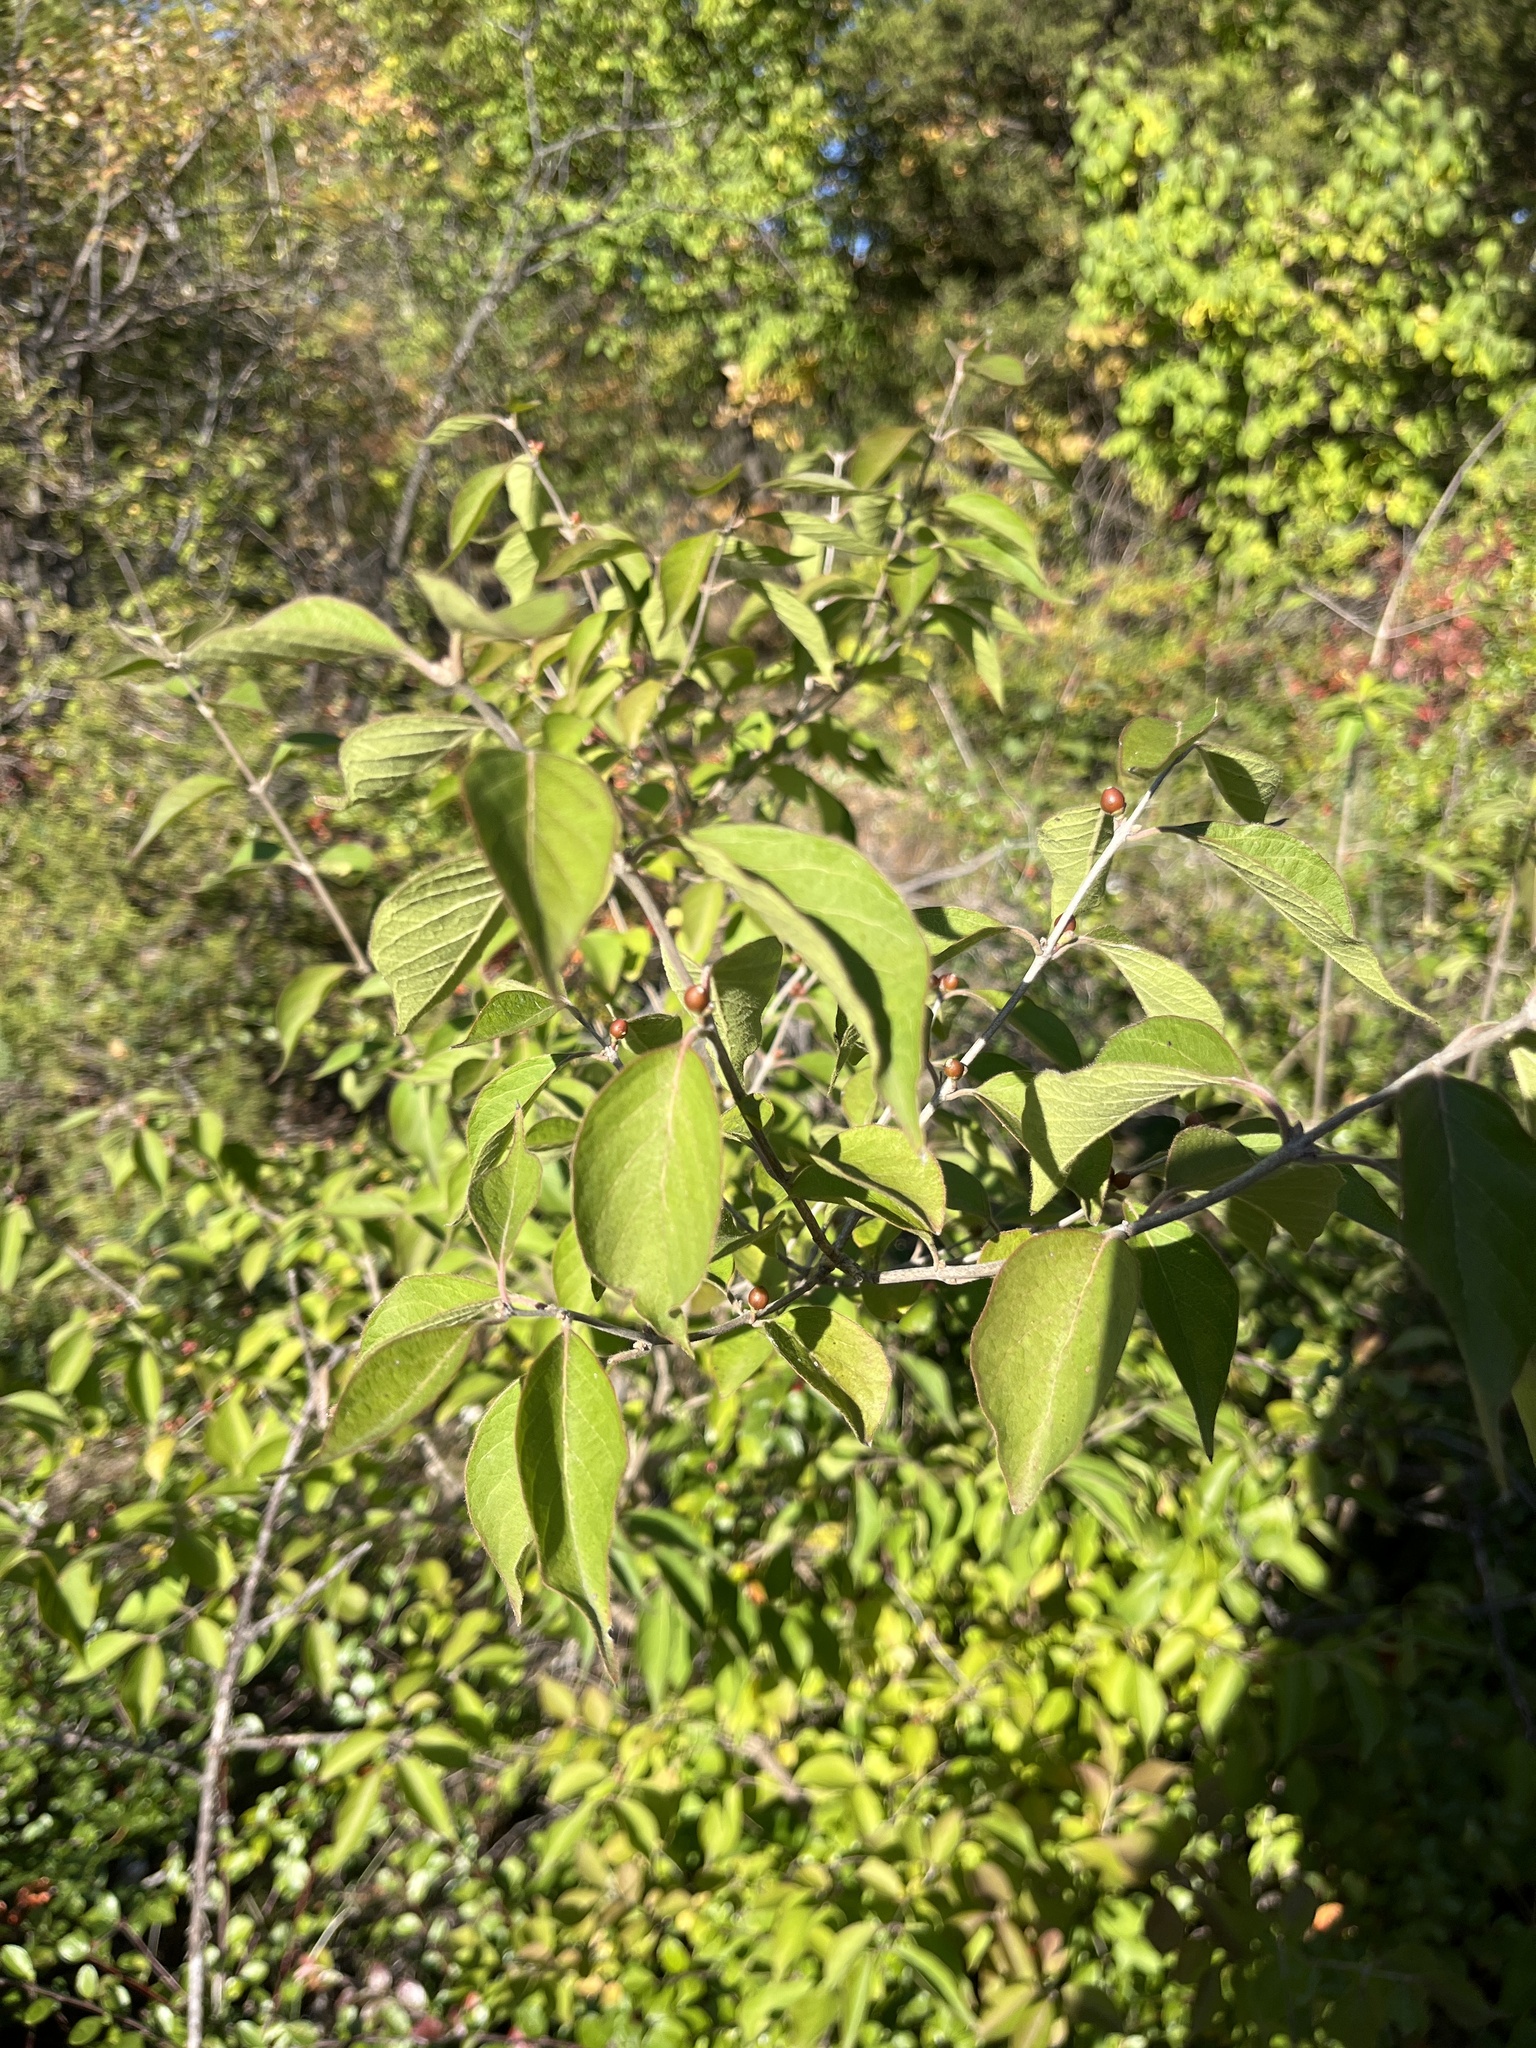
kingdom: Plantae
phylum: Tracheophyta
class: Magnoliopsida
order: Dipsacales
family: Caprifoliaceae
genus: Lonicera
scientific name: Lonicera maackii
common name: Amur honeysuckle
